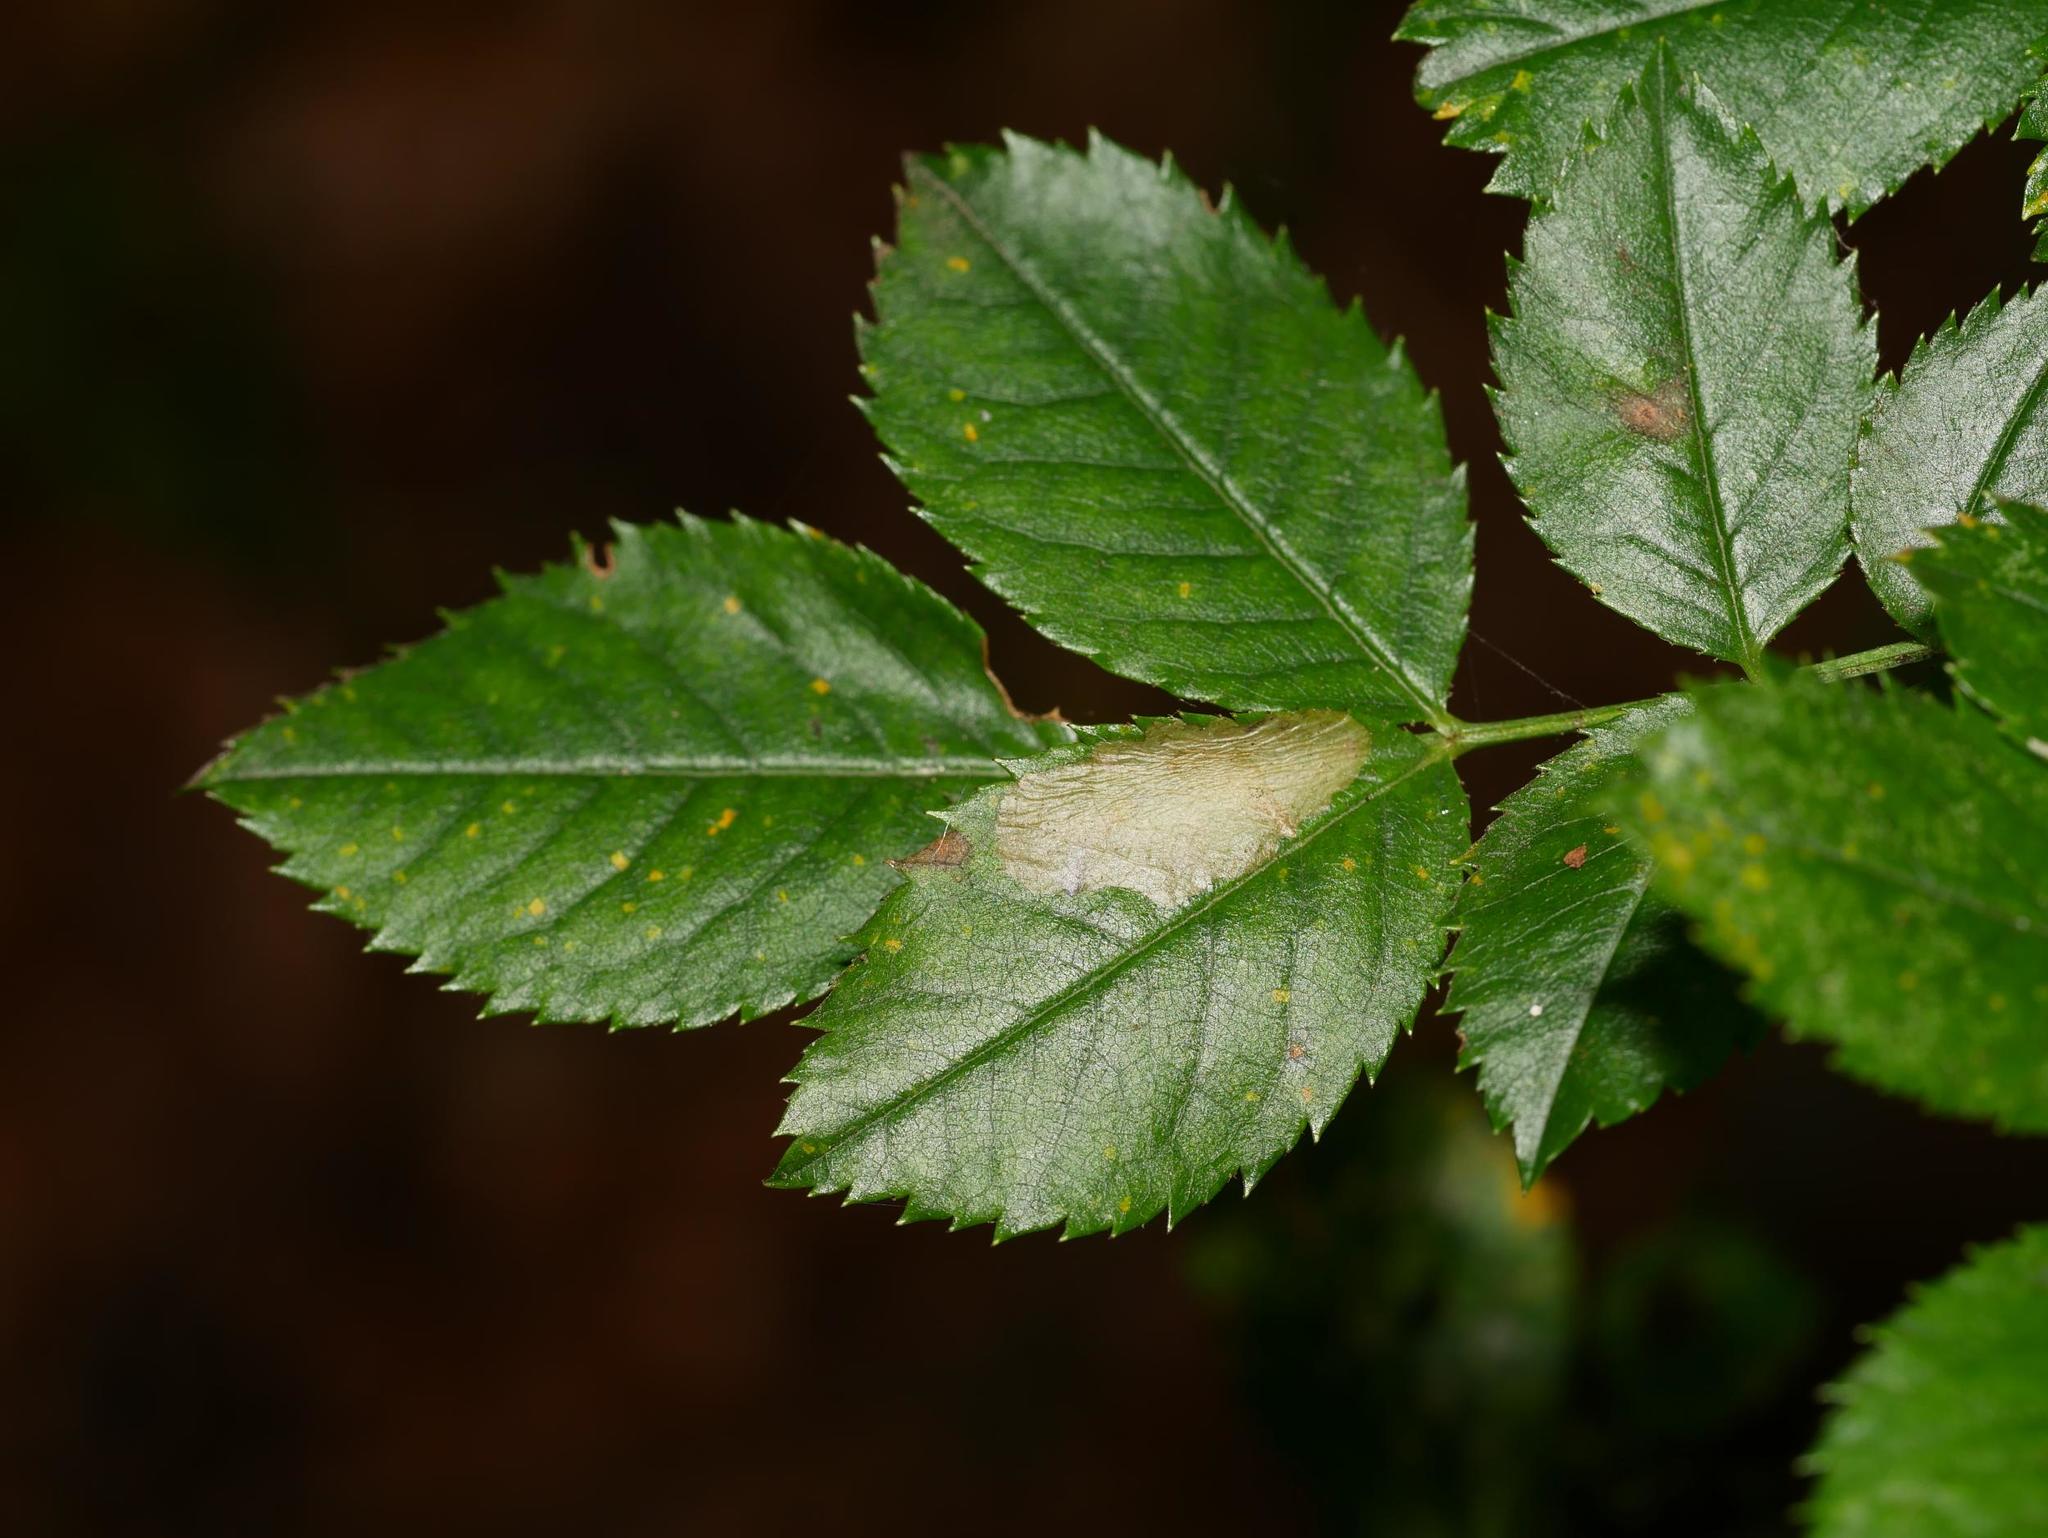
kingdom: Animalia
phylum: Arthropoda
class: Insecta
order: Lepidoptera
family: Tischeriidae
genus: Coptotriche
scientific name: Coptotriche angusticolella
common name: Rose carl
